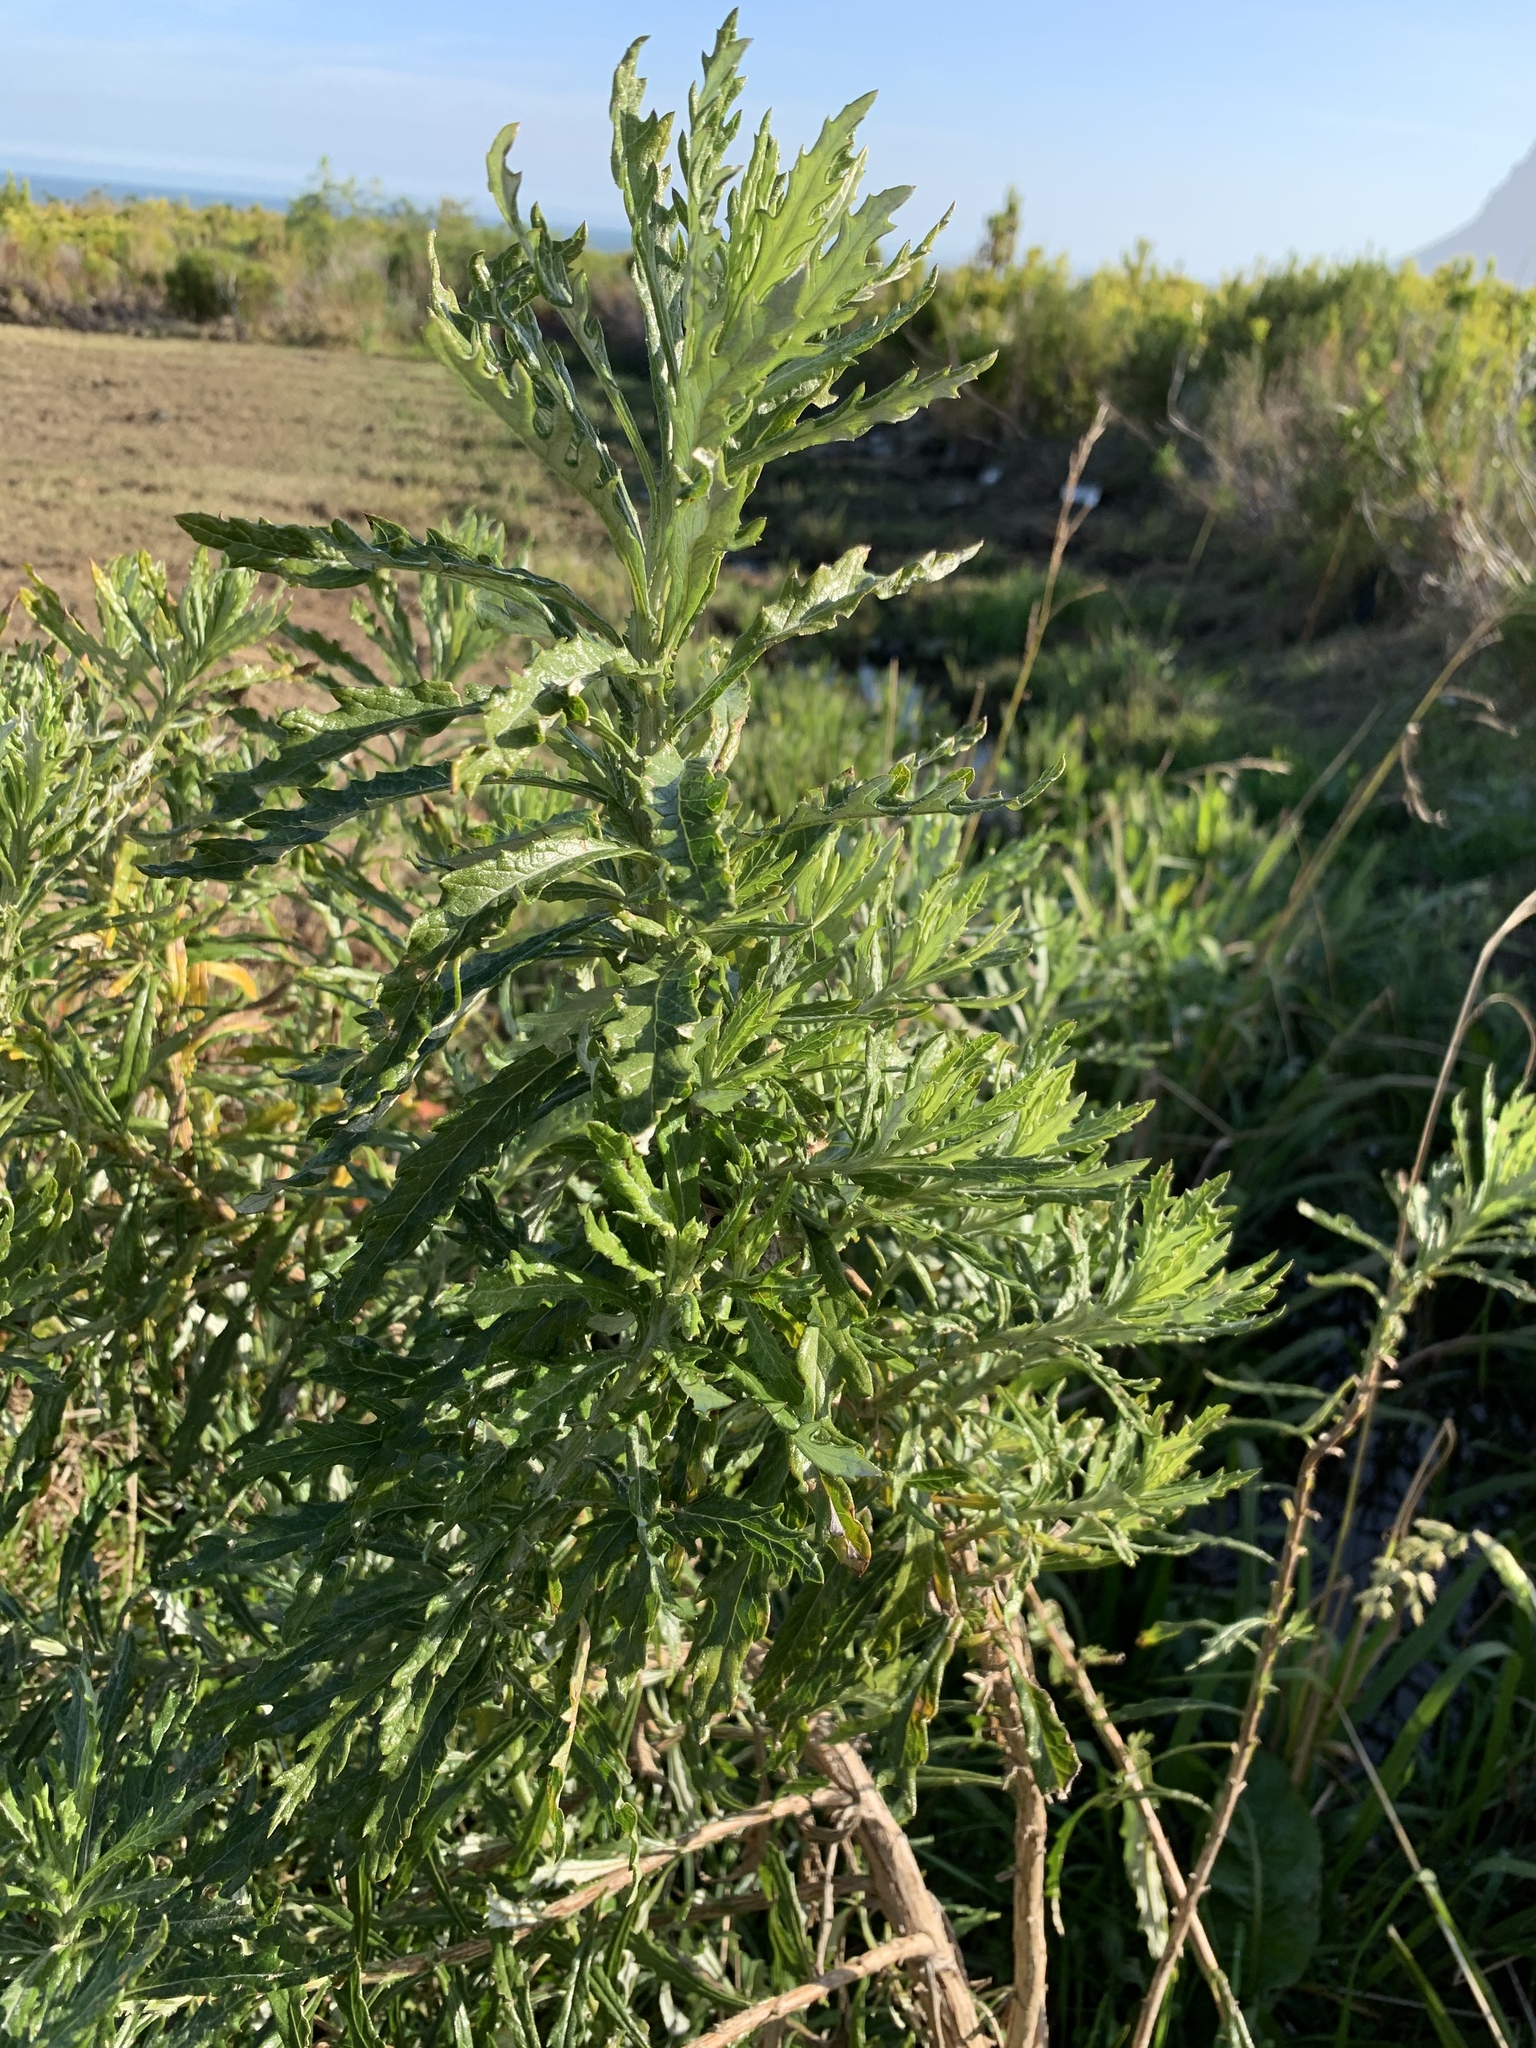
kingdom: Plantae
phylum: Tracheophyta
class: Magnoliopsida
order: Asterales
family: Asteraceae
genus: Senecio
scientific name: Senecio pterophorus
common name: Shoddy ragwort
